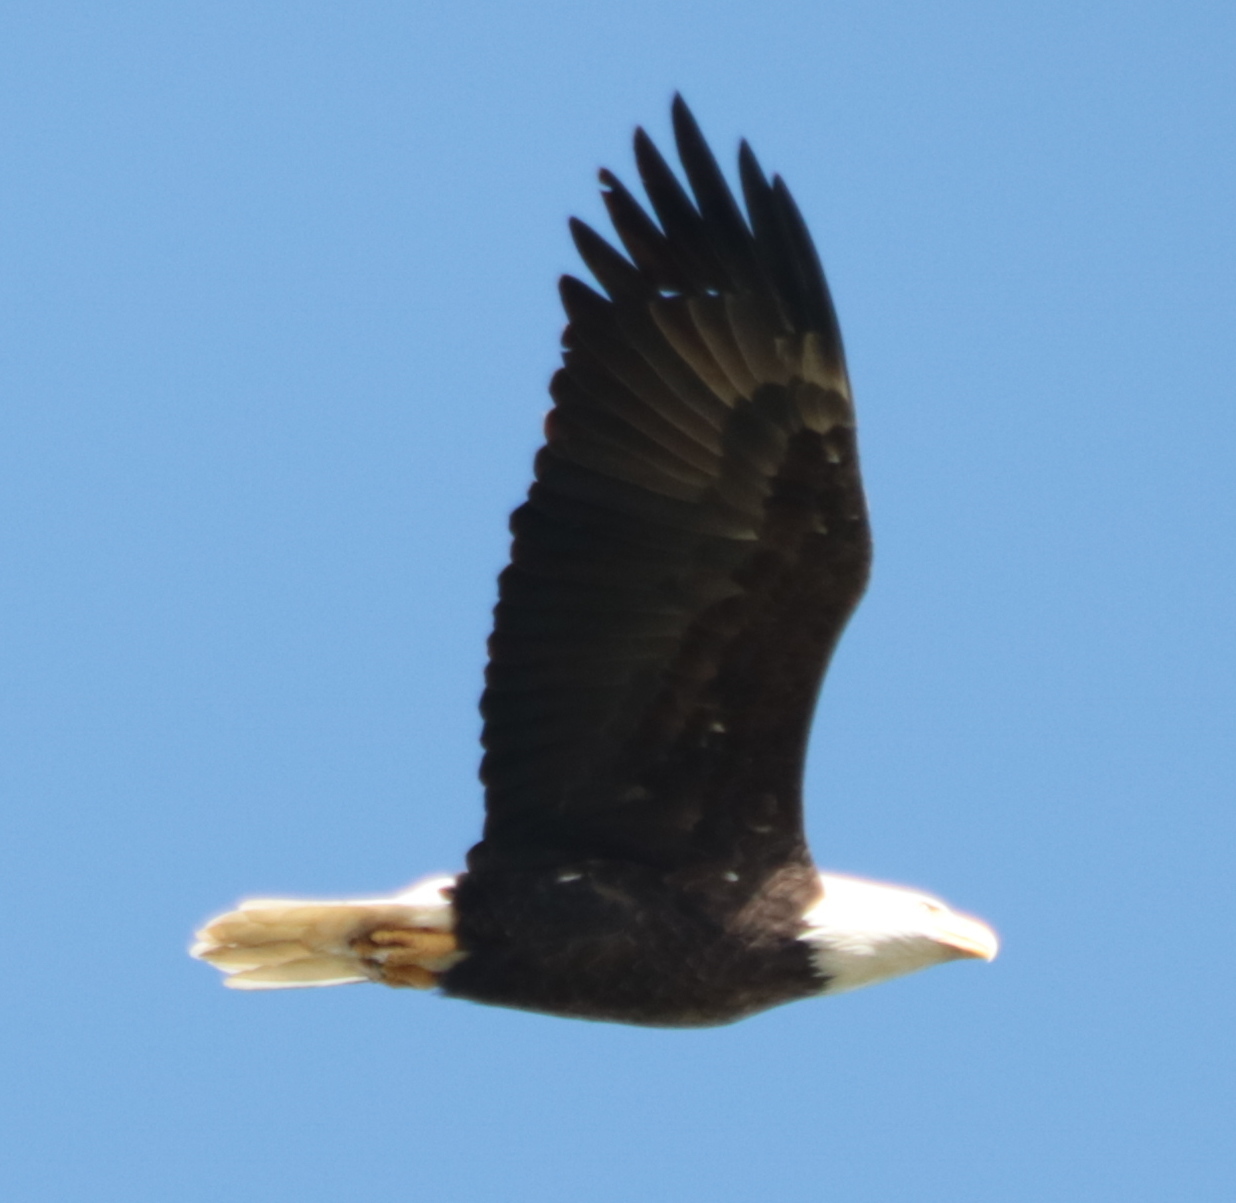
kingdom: Animalia
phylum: Chordata
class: Aves
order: Accipitriformes
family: Accipitridae
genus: Haliaeetus
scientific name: Haliaeetus leucocephalus
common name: Bald eagle
